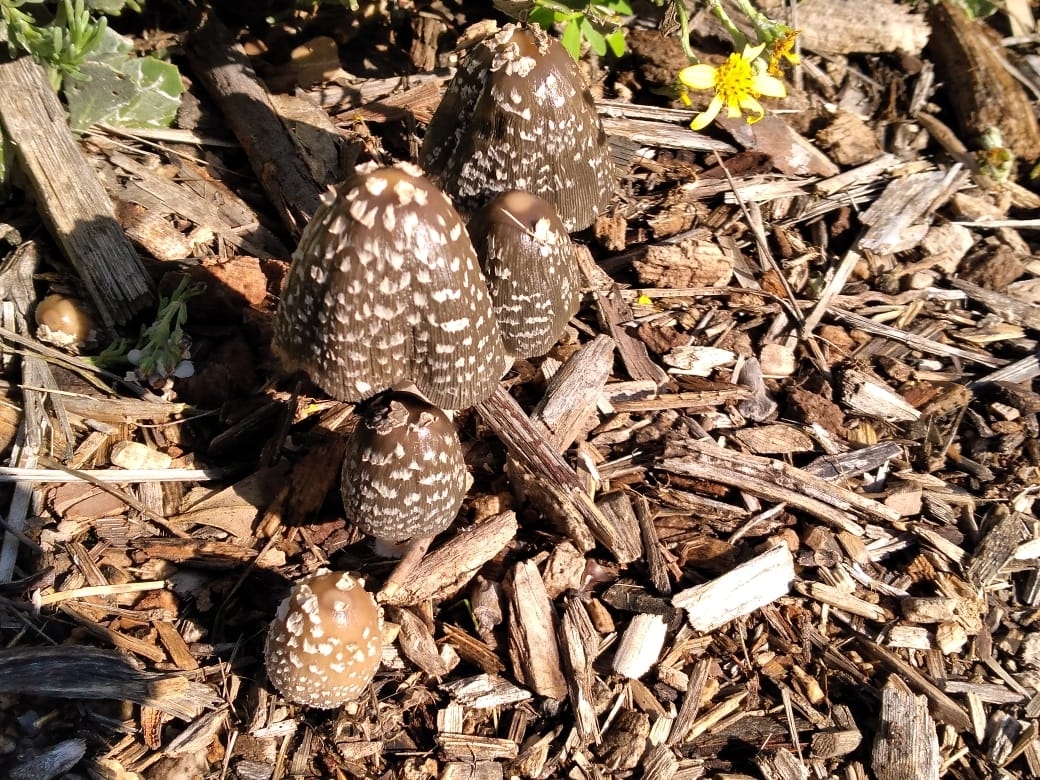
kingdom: Fungi
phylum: Basidiomycota
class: Agaricomycetes
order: Agaricales
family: Psathyrellaceae
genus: Coprinopsis
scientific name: Coprinopsis picacea
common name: Magpie inkcap
